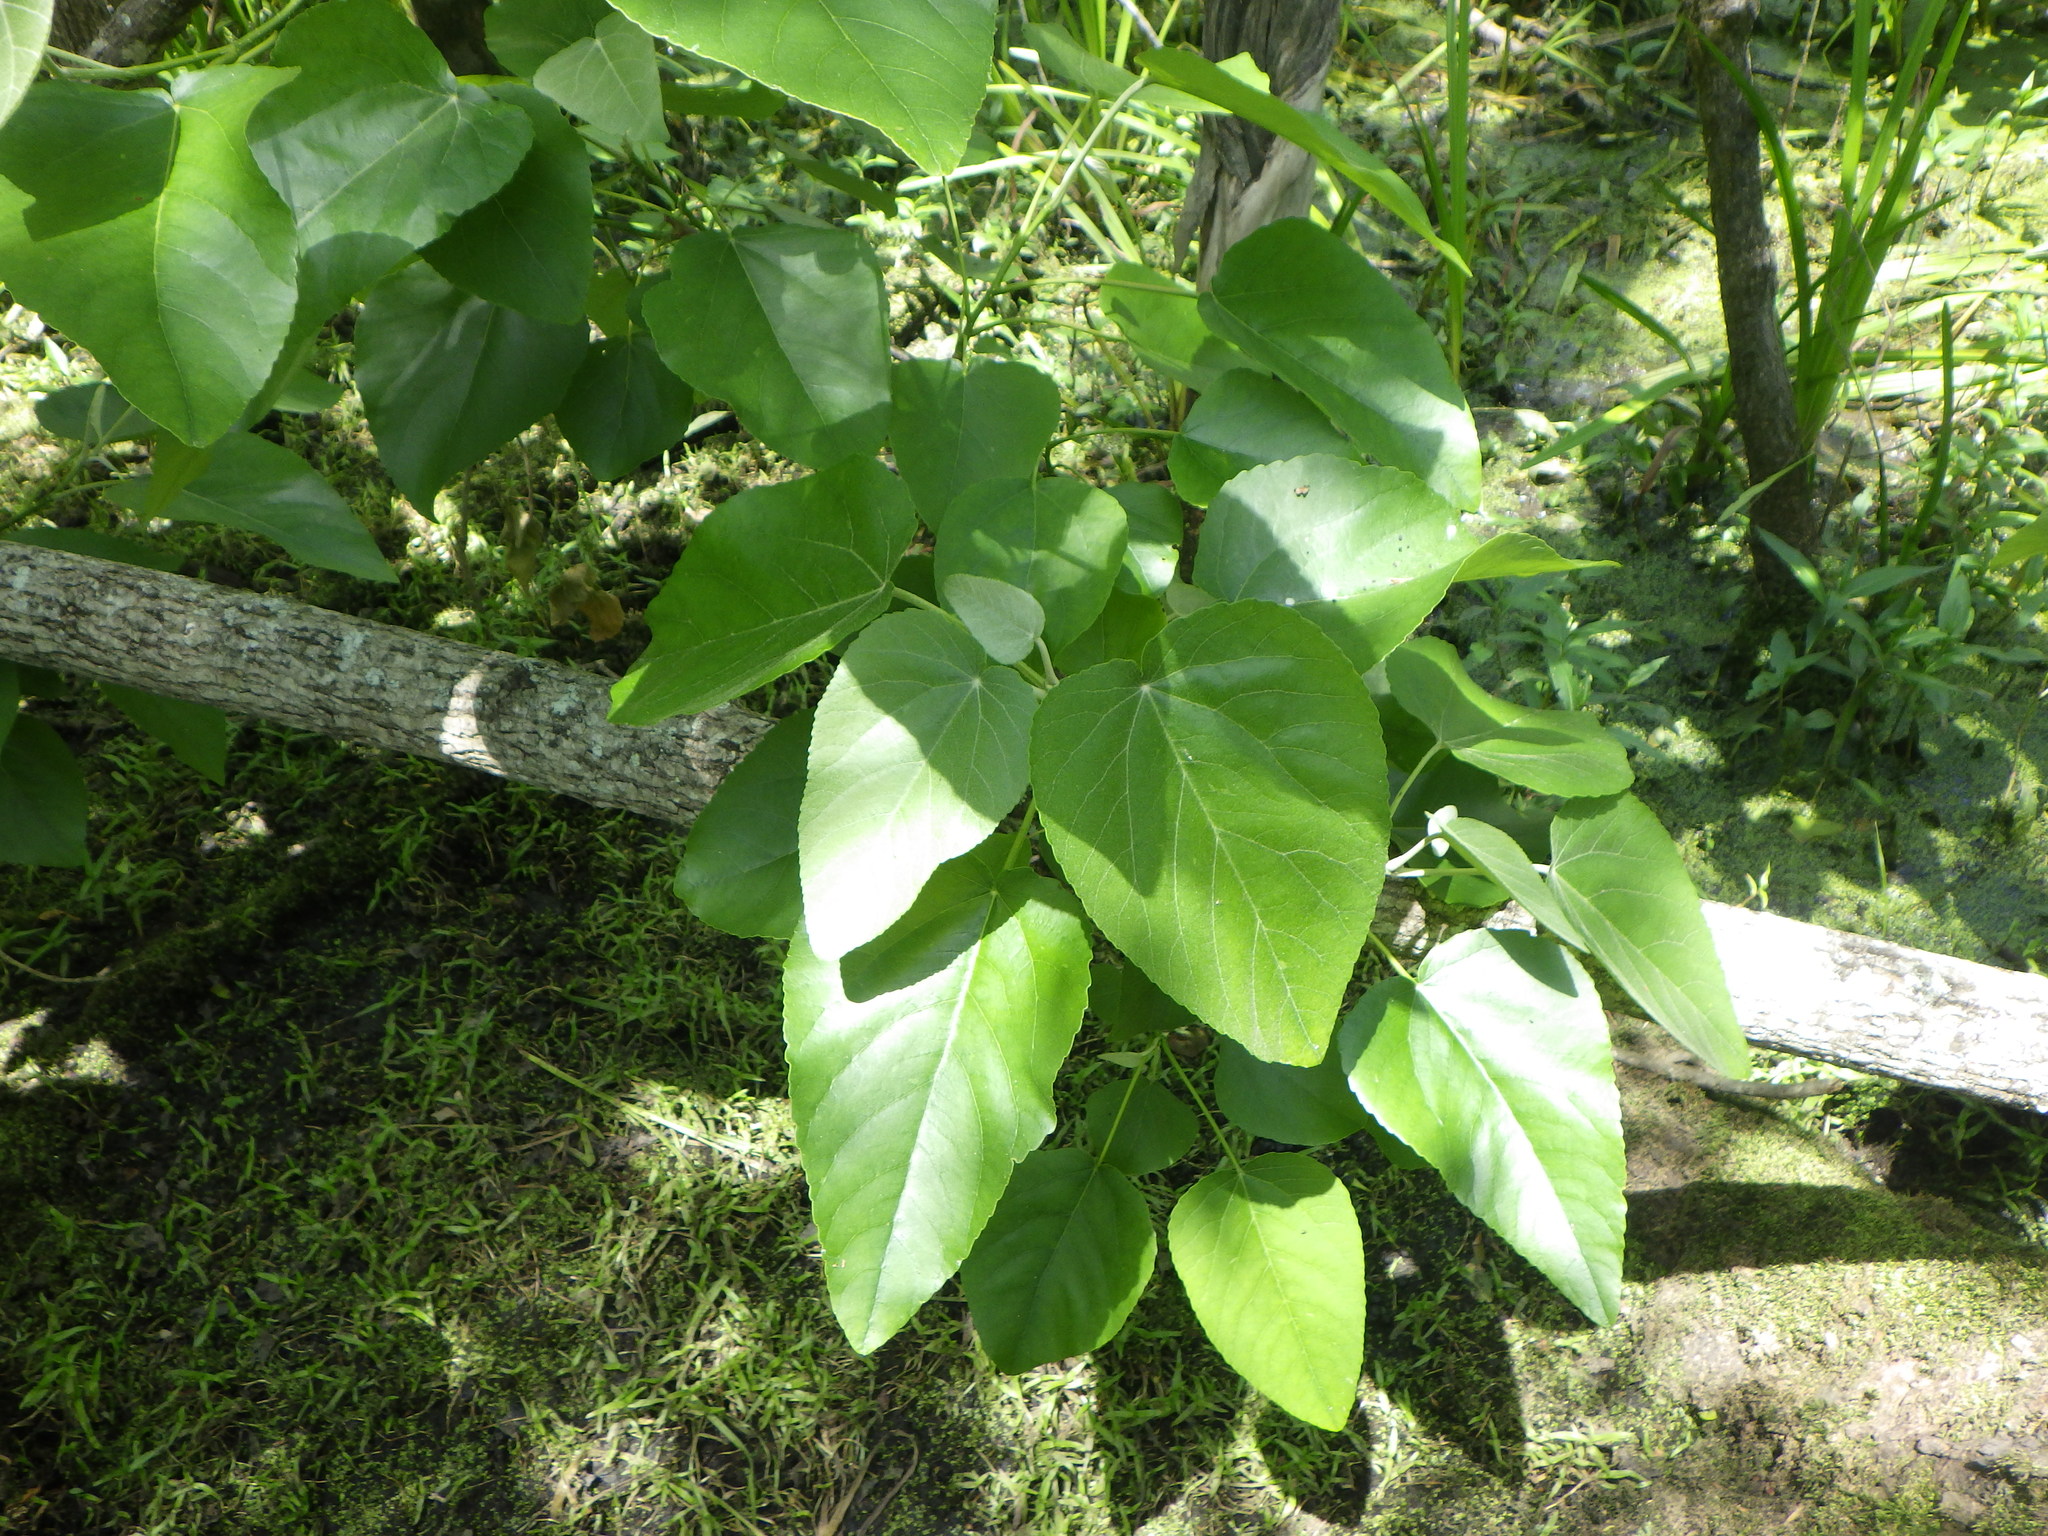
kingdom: Plantae
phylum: Tracheophyta
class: Magnoliopsida
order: Malpighiales
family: Salicaceae
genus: Populus
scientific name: Populus heterophylla
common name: Downy poplar
